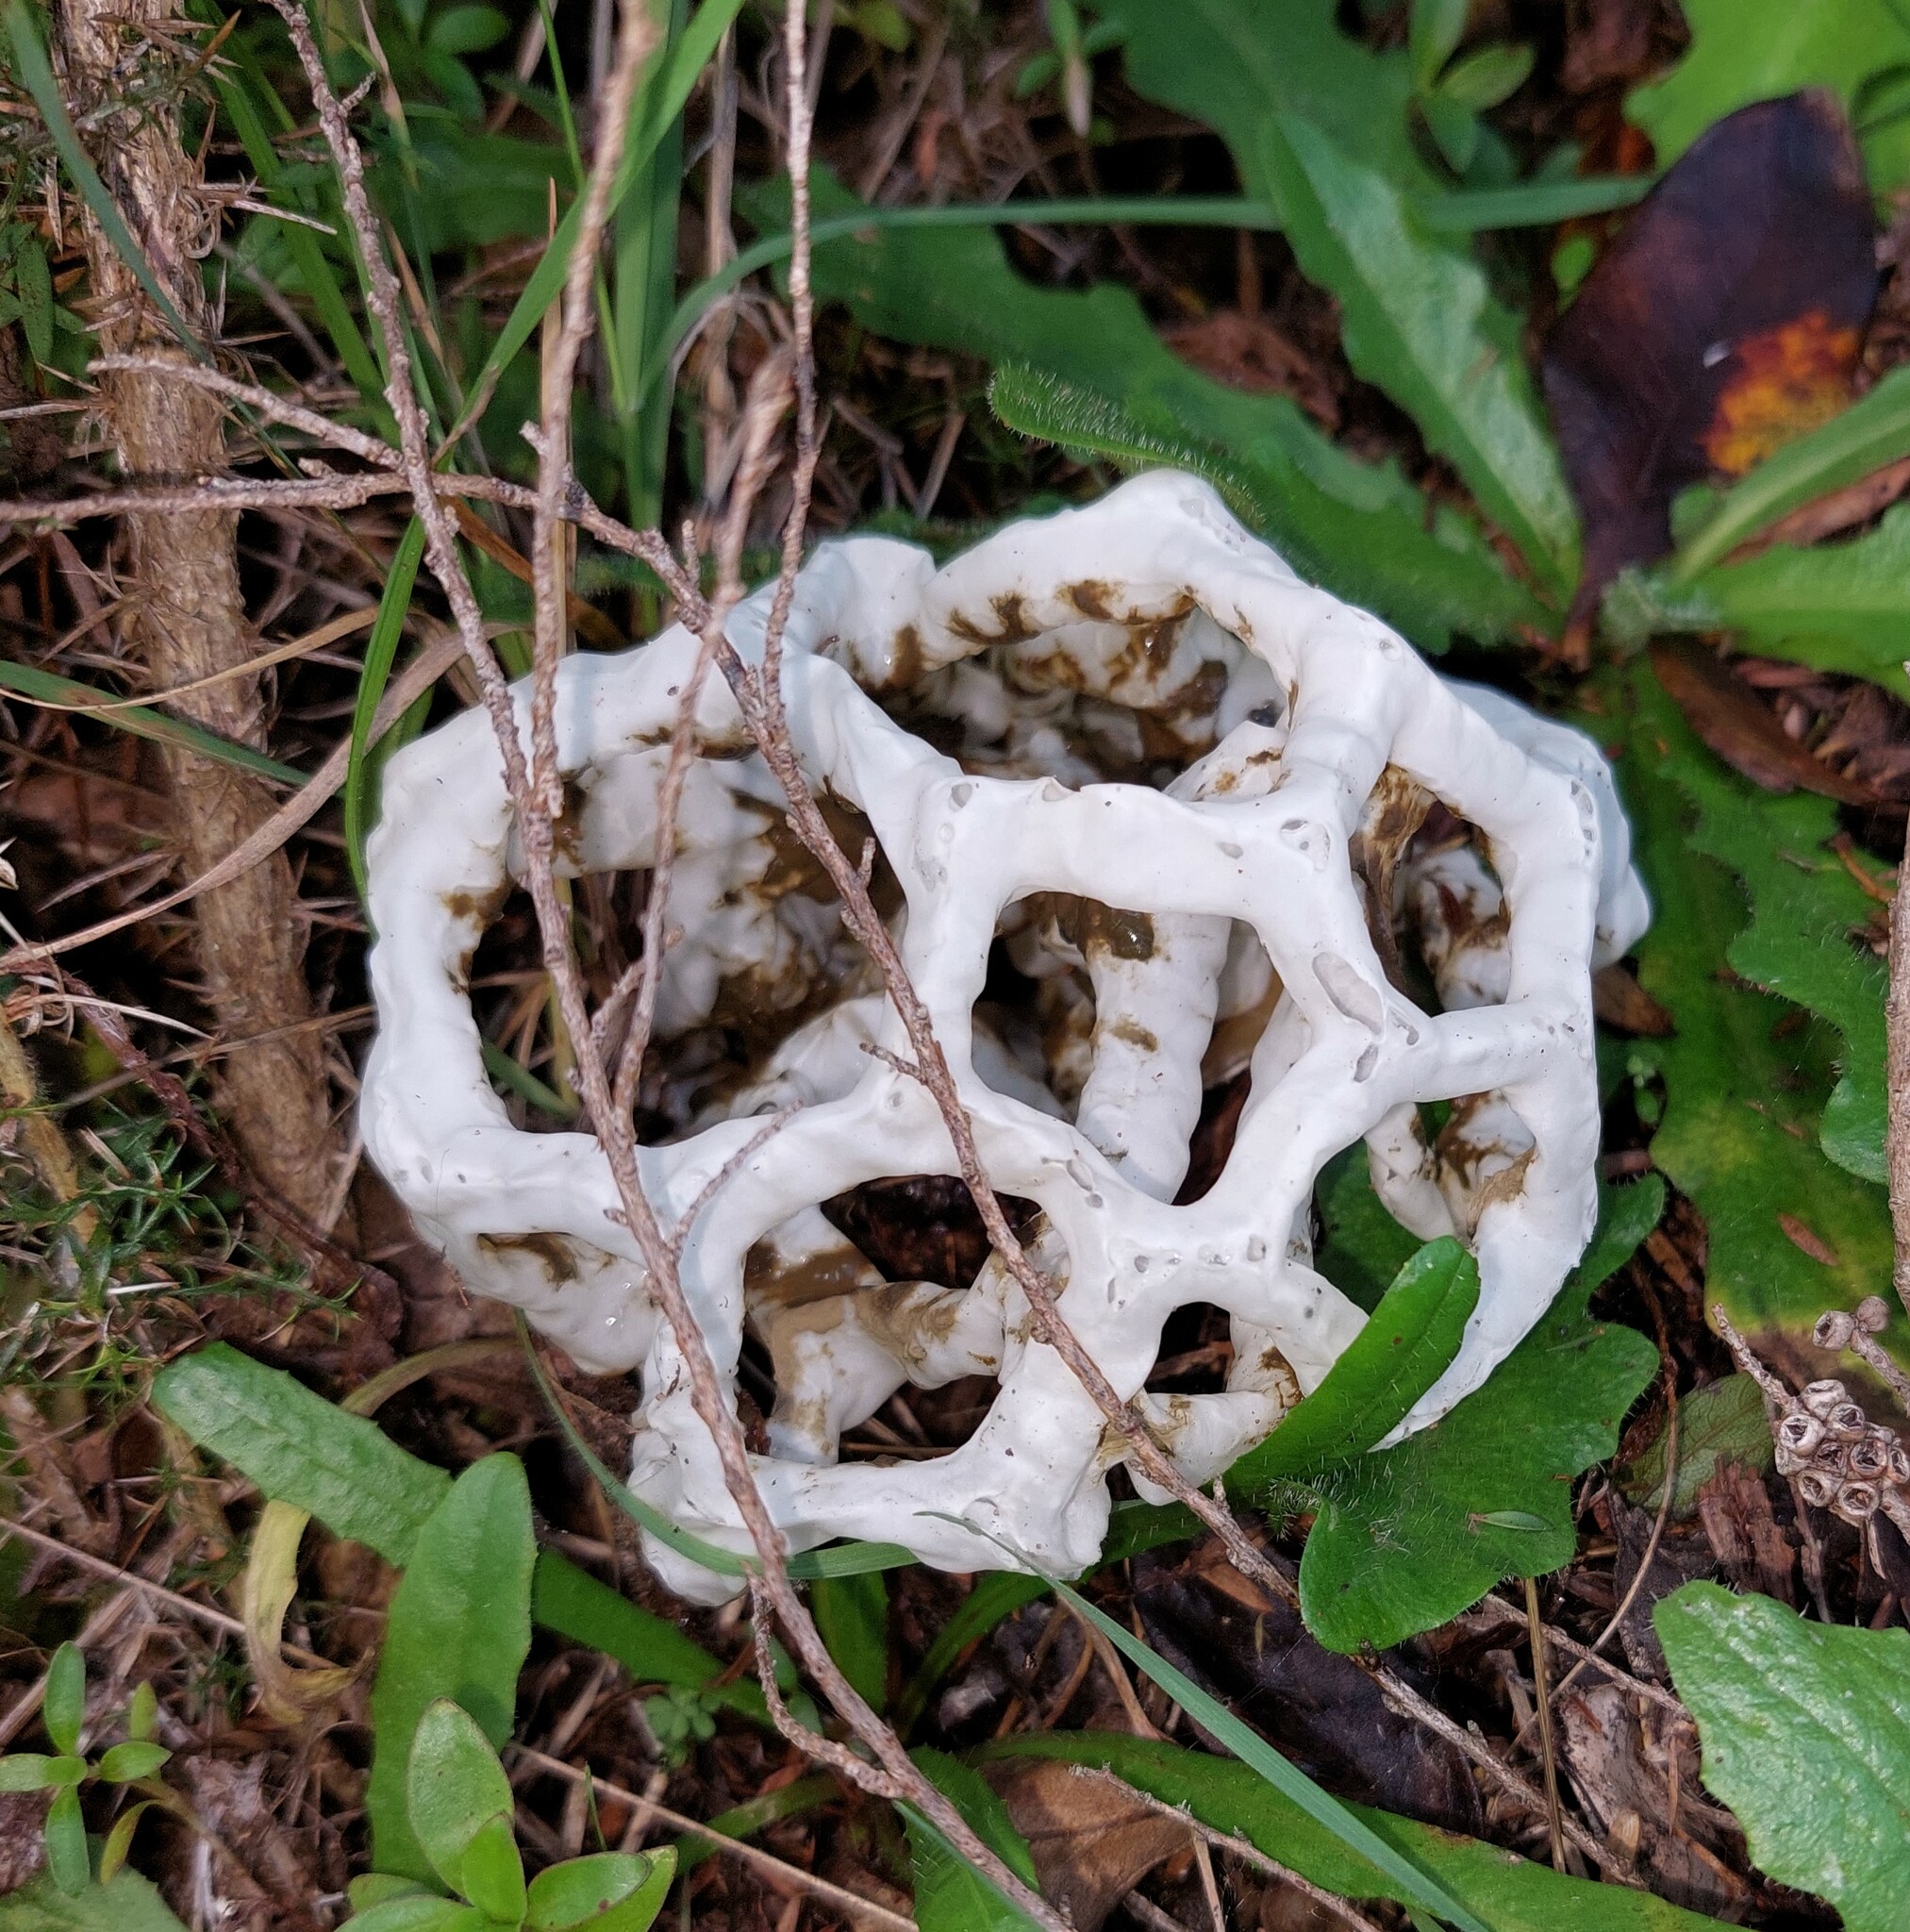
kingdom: Fungi
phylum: Basidiomycota
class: Agaricomycetes
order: Phallales
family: Phallaceae
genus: Ileodictyon
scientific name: Ileodictyon cibarium
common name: Basket fungus
